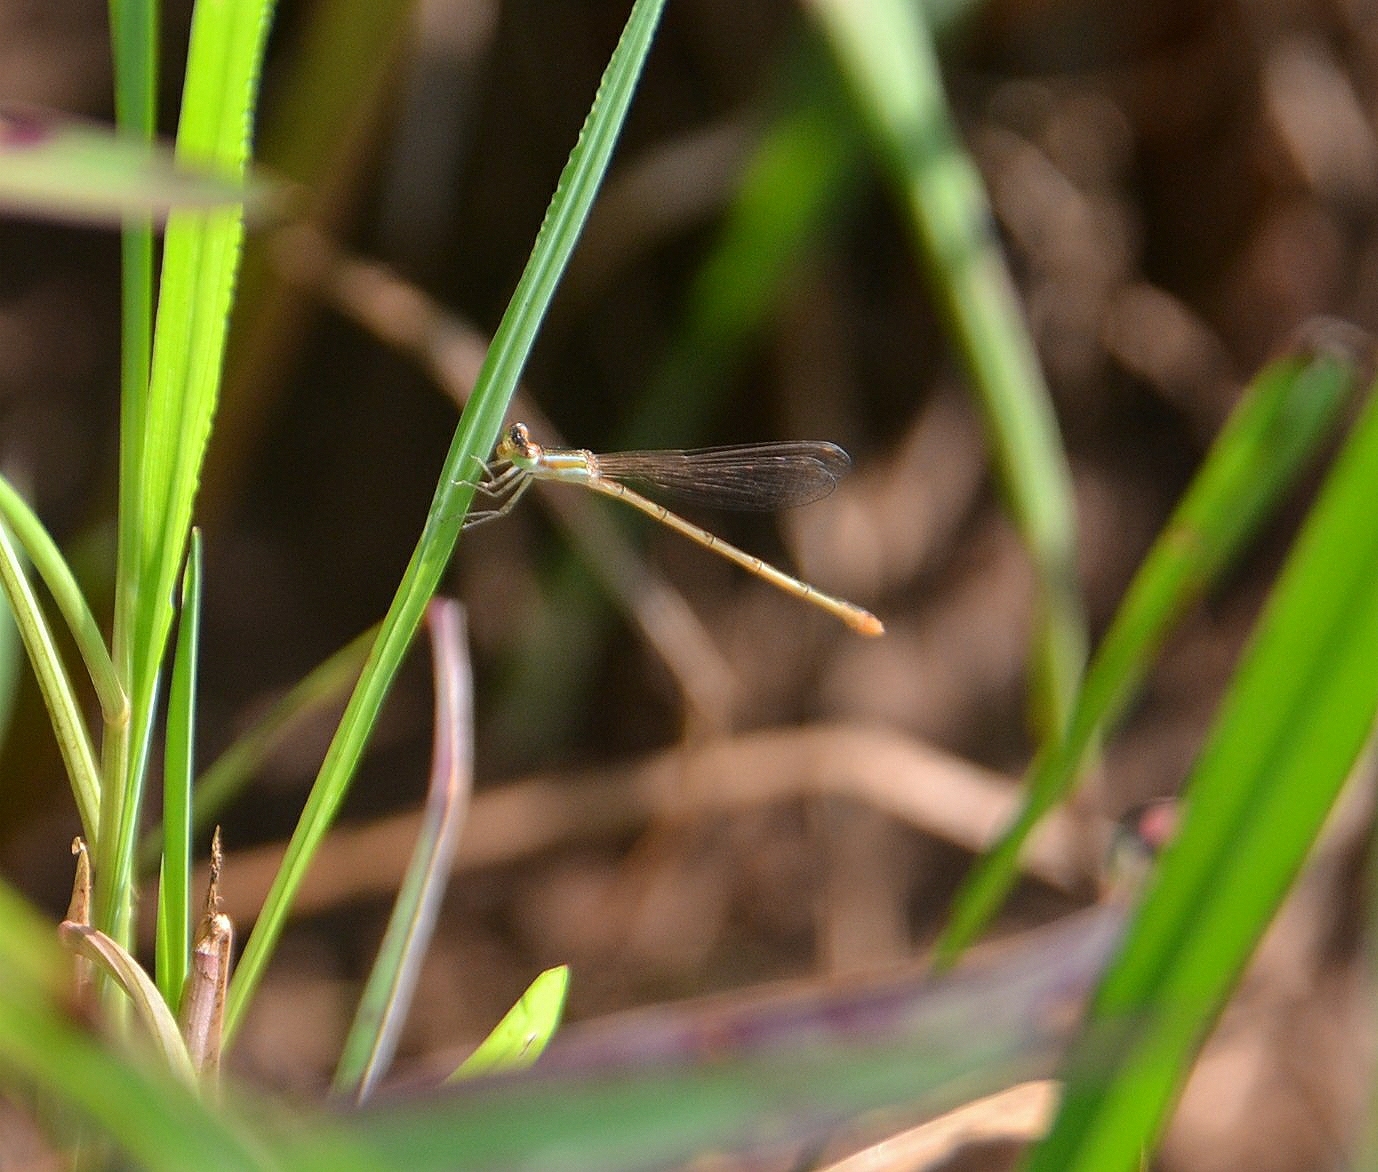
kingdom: Animalia
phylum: Arthropoda
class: Insecta
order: Odonata
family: Coenagrionidae
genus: Agriocnemis
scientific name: Agriocnemis pygmaea
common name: Pygmy wisp
